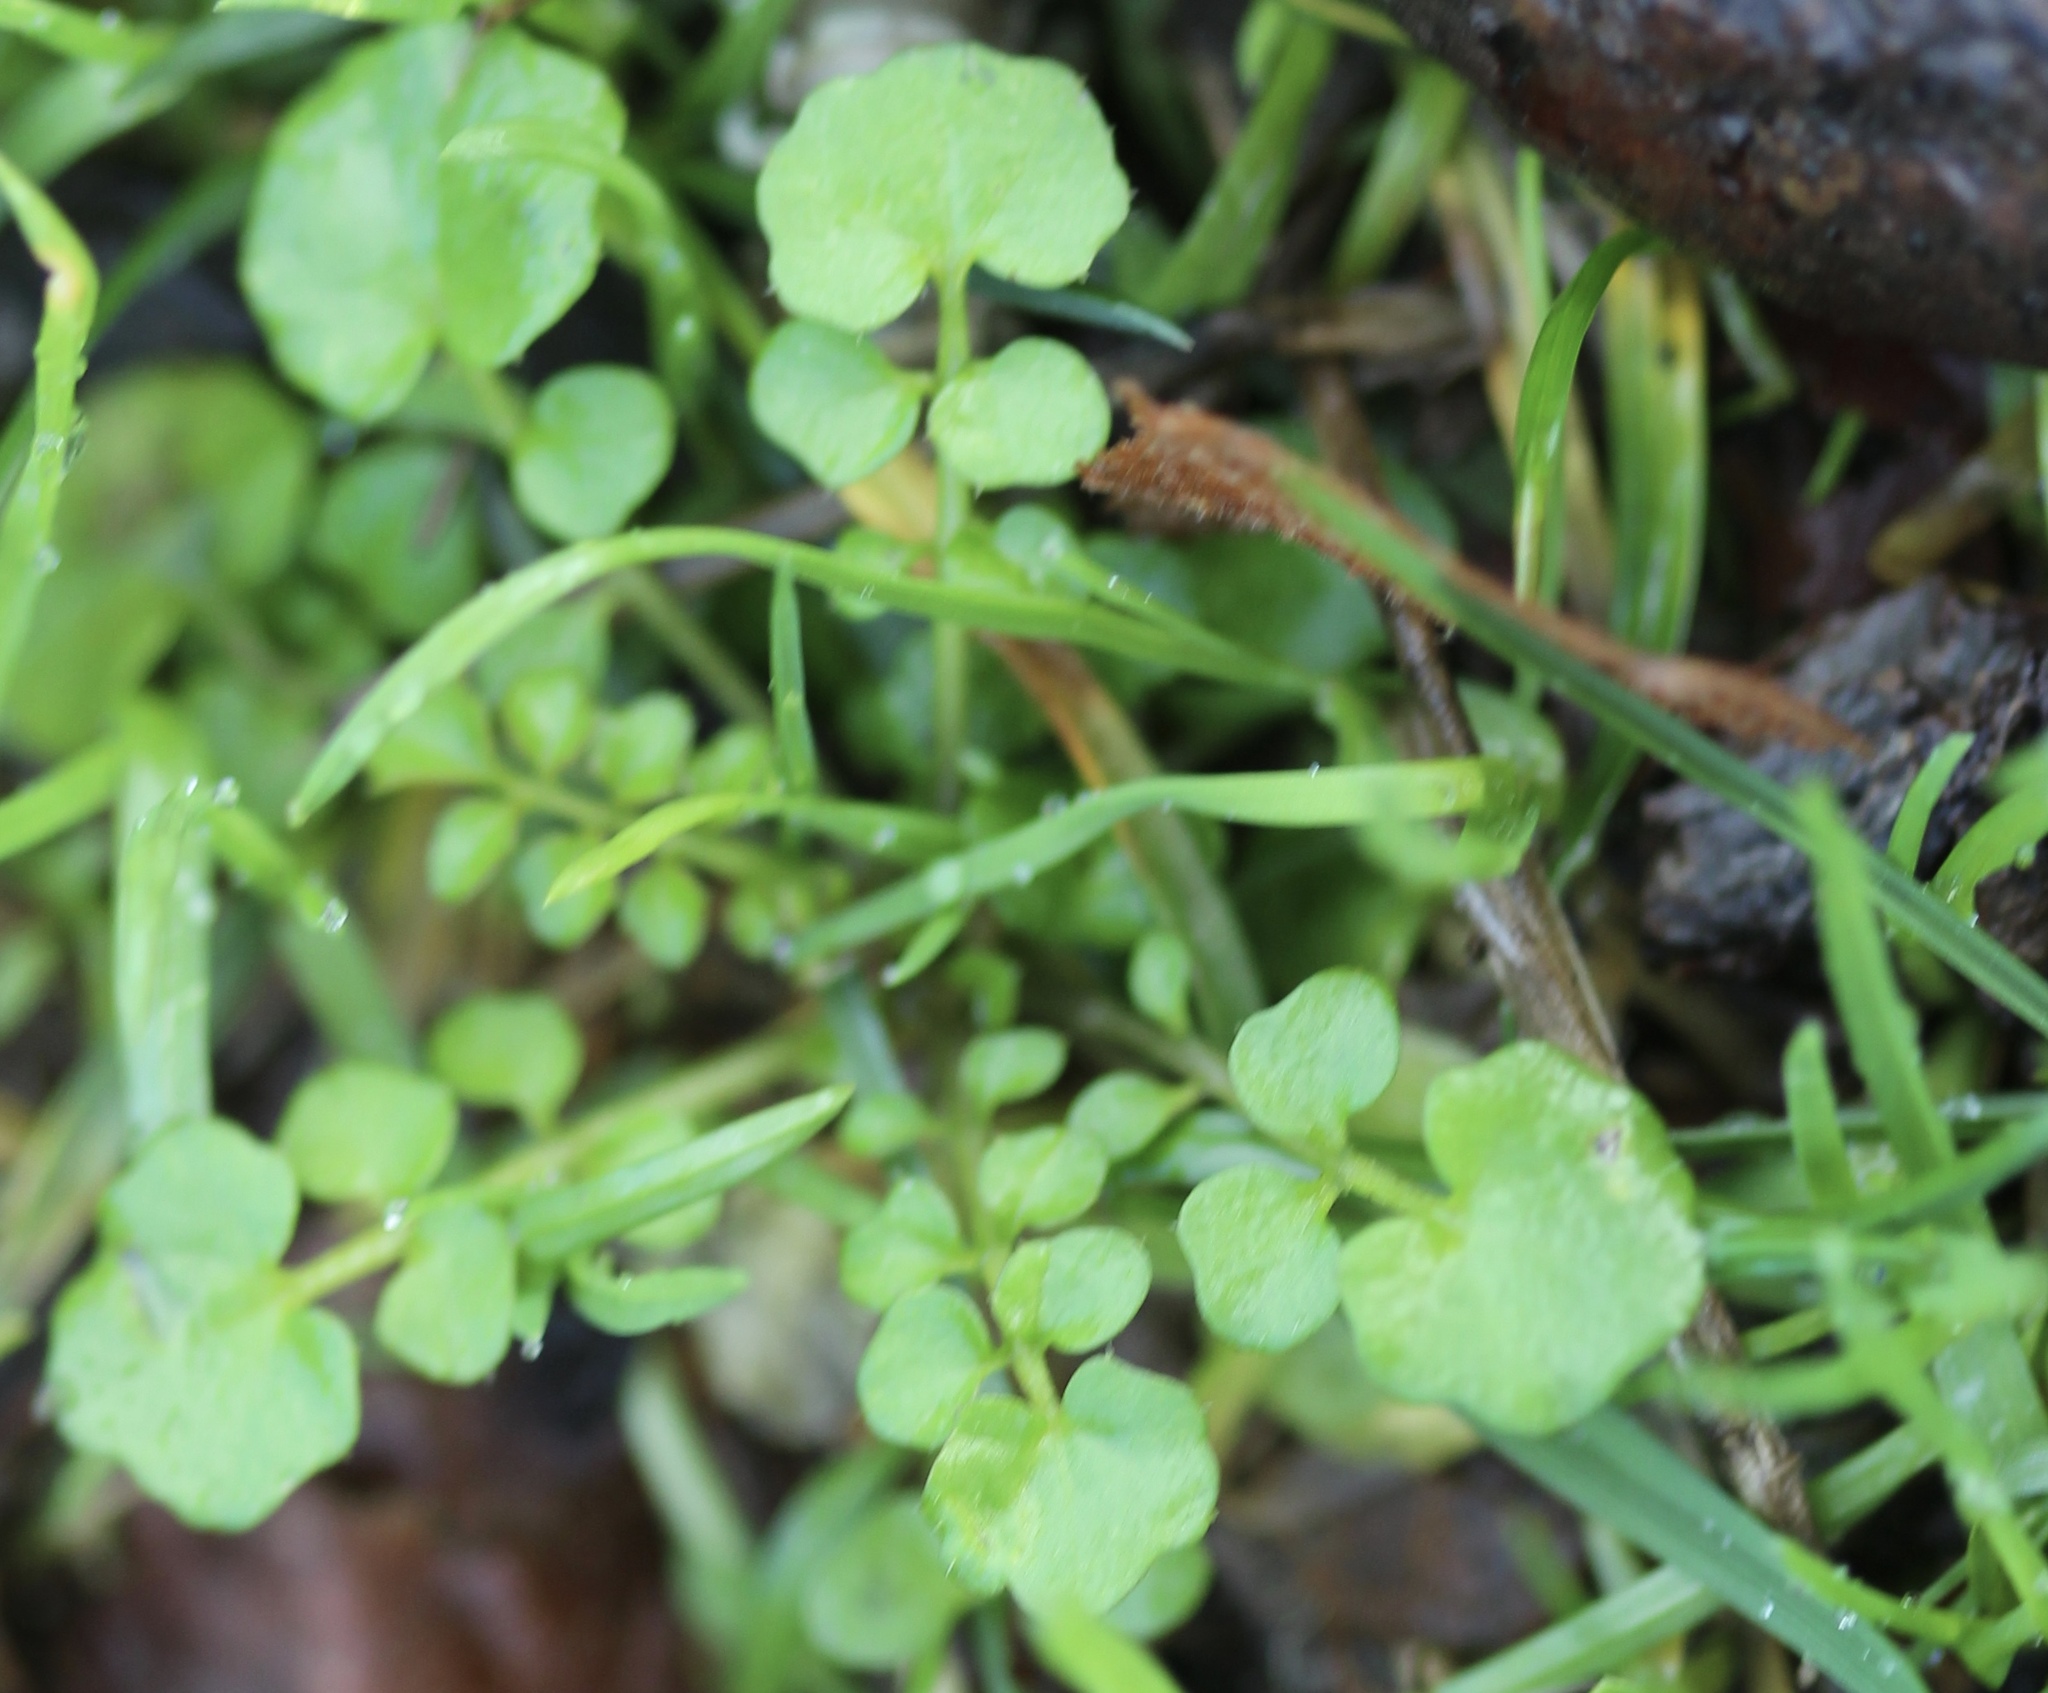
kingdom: Plantae
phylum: Tracheophyta
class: Magnoliopsida
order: Brassicales
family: Brassicaceae
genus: Cardamine
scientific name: Cardamine hirsuta
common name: Hairy bittercress
